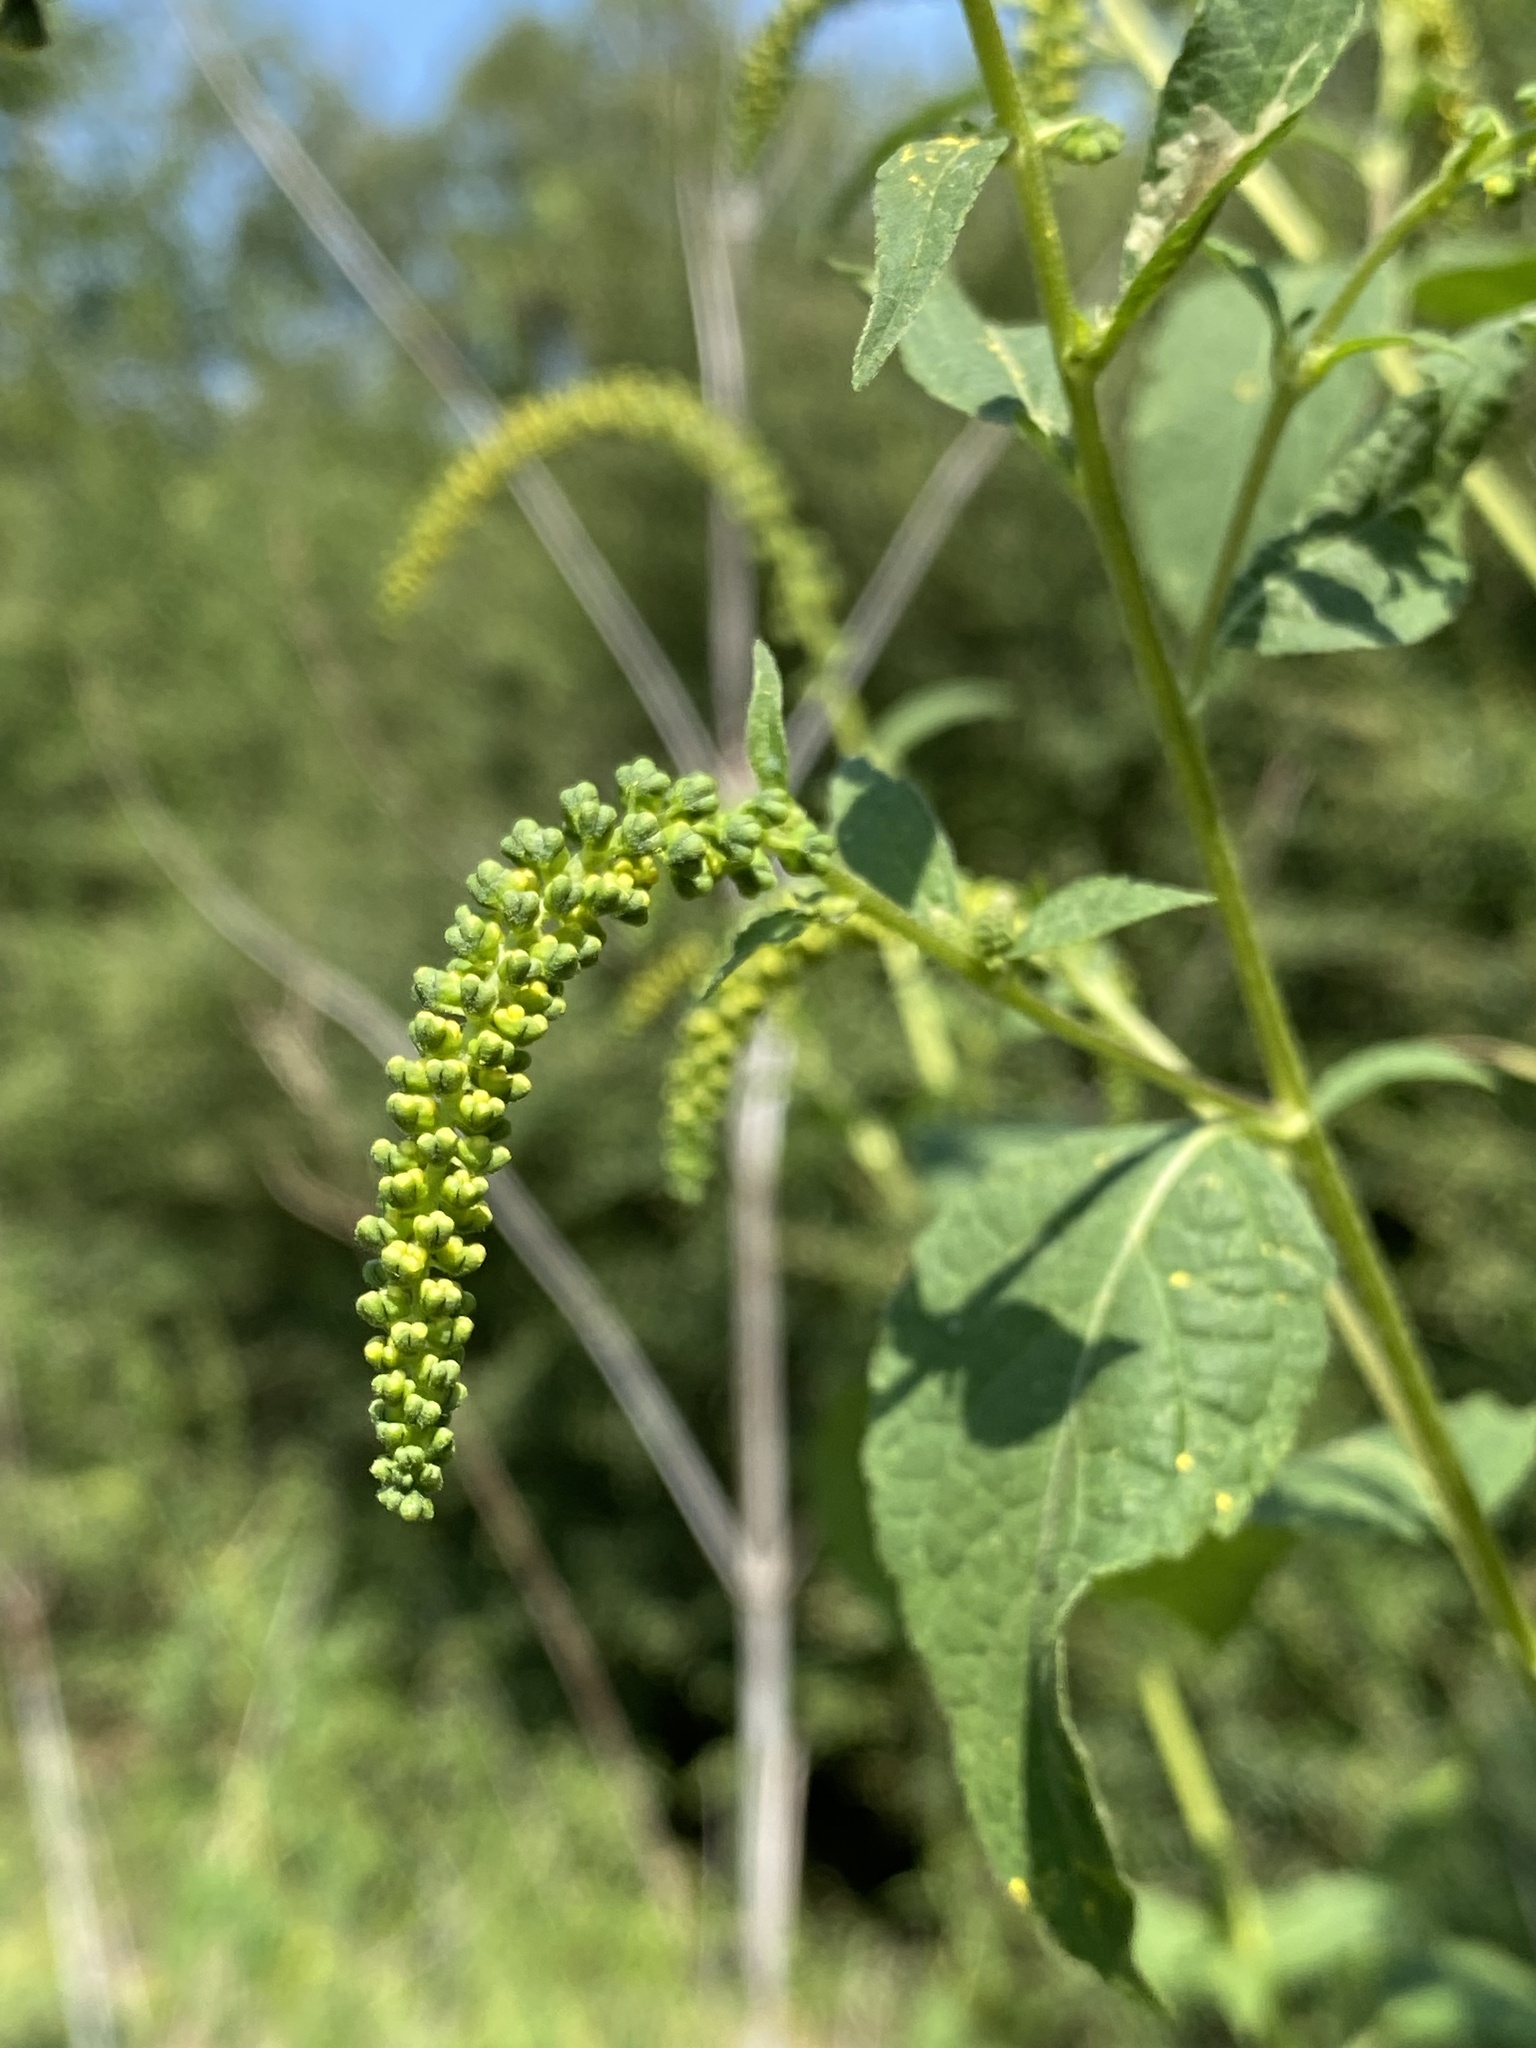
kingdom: Plantae
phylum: Tracheophyta
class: Magnoliopsida
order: Asterales
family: Asteraceae
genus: Ambrosia
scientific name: Ambrosia trifida
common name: Giant ragweed
